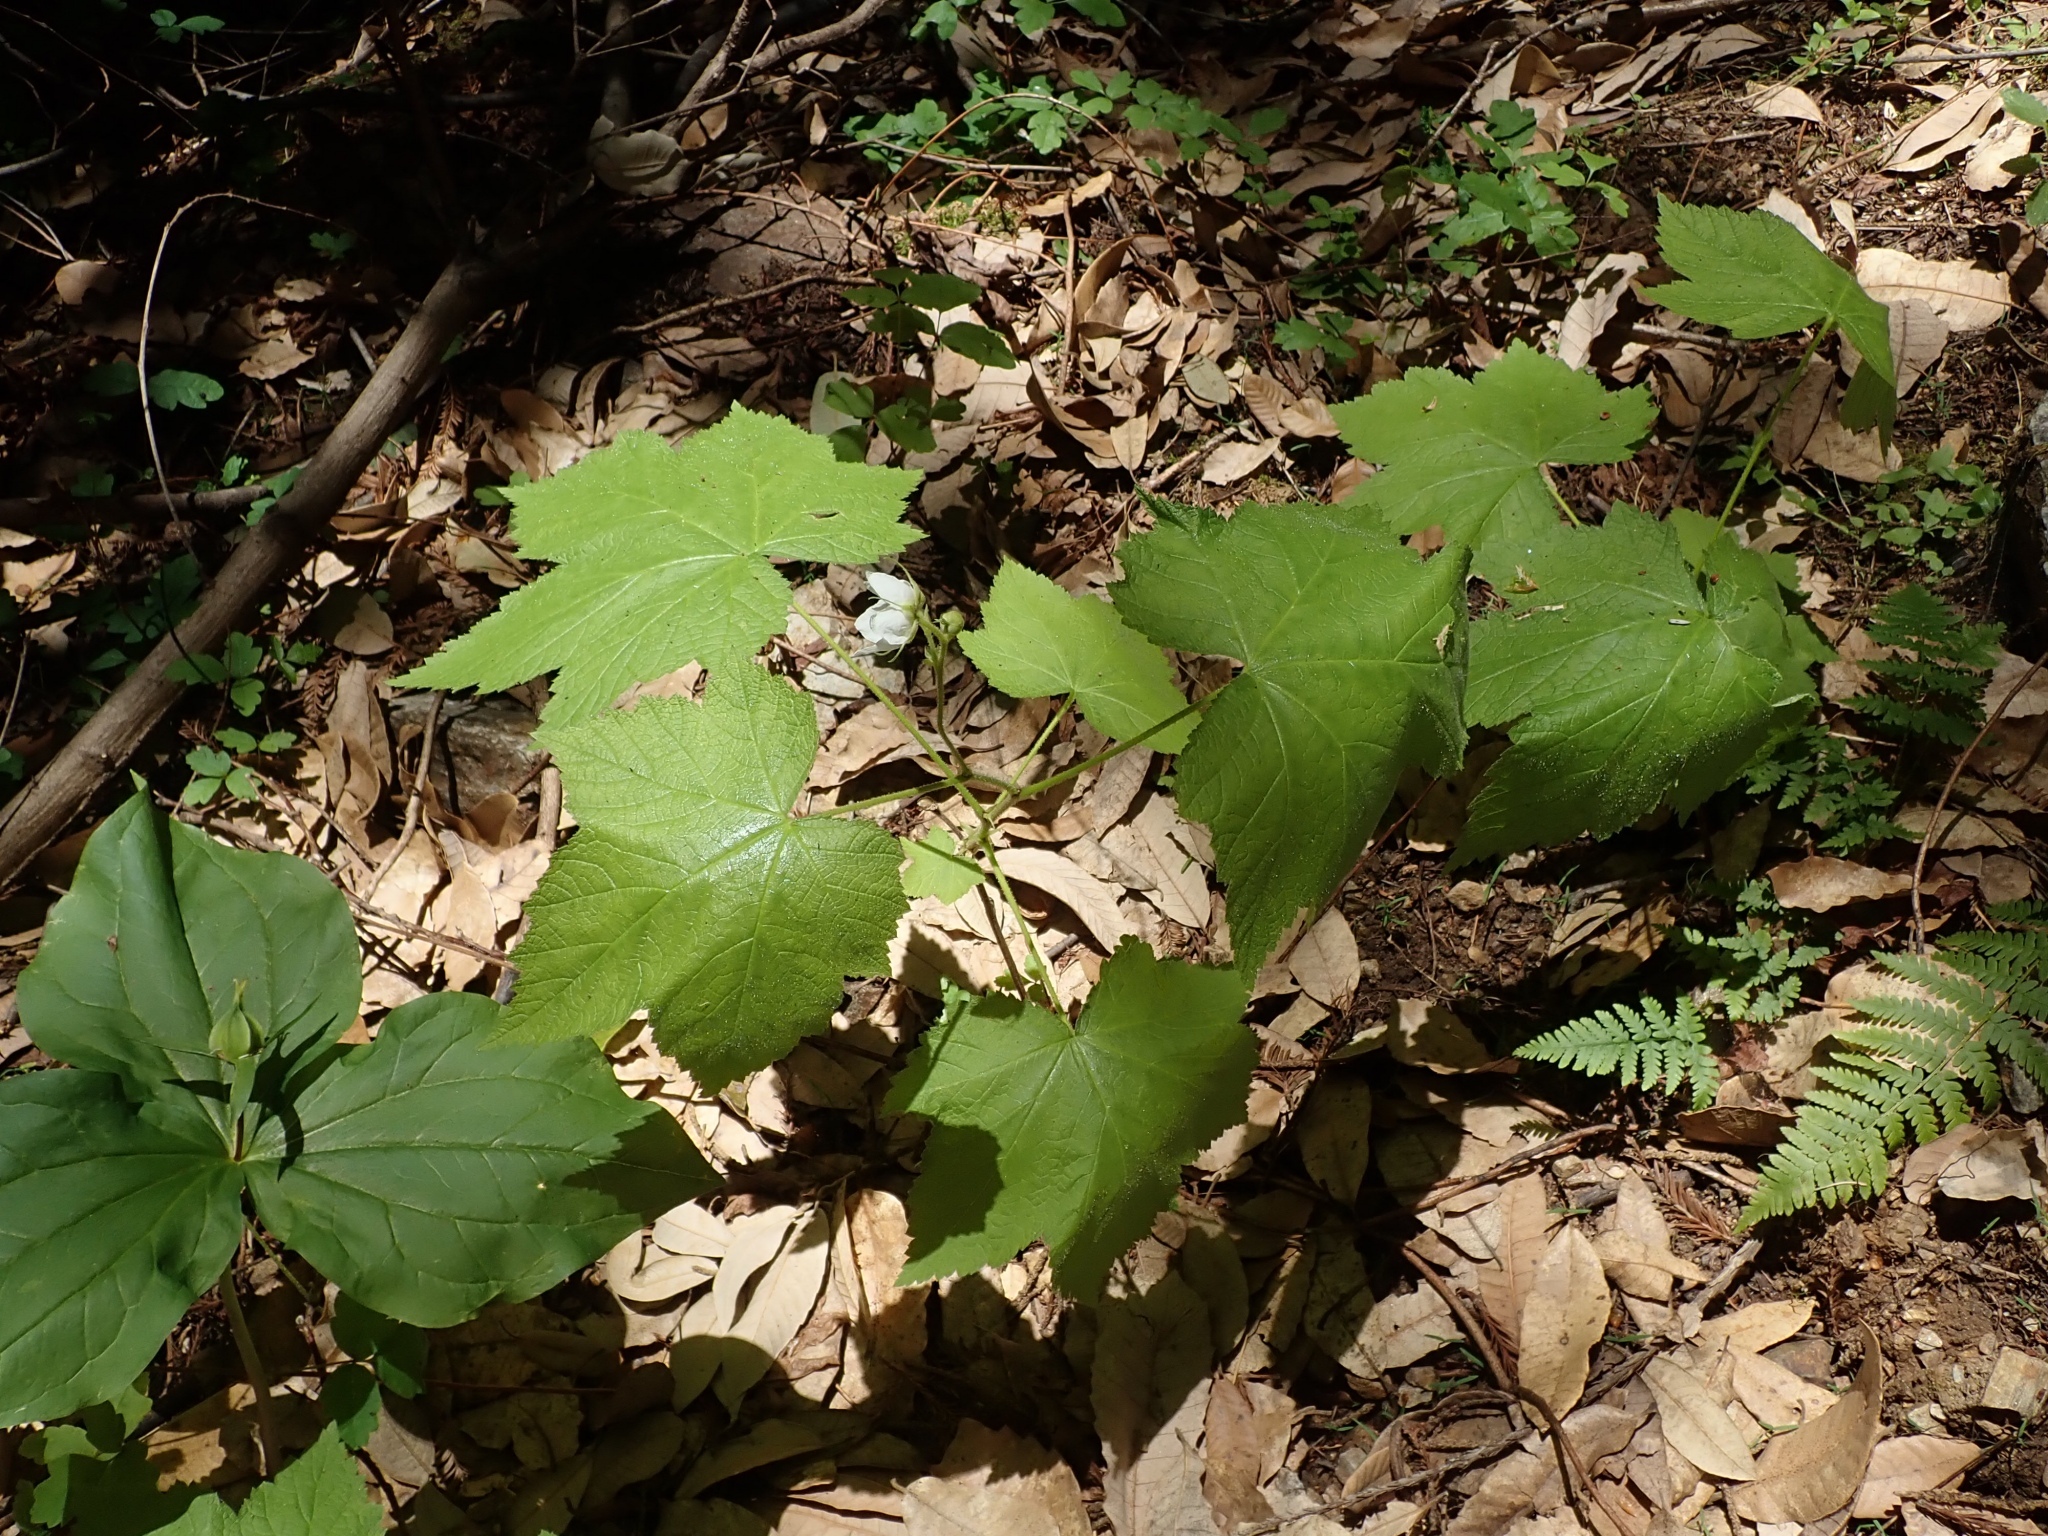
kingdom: Plantae
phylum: Tracheophyta
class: Magnoliopsida
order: Rosales
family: Rosaceae
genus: Rubus
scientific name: Rubus parviflorus
